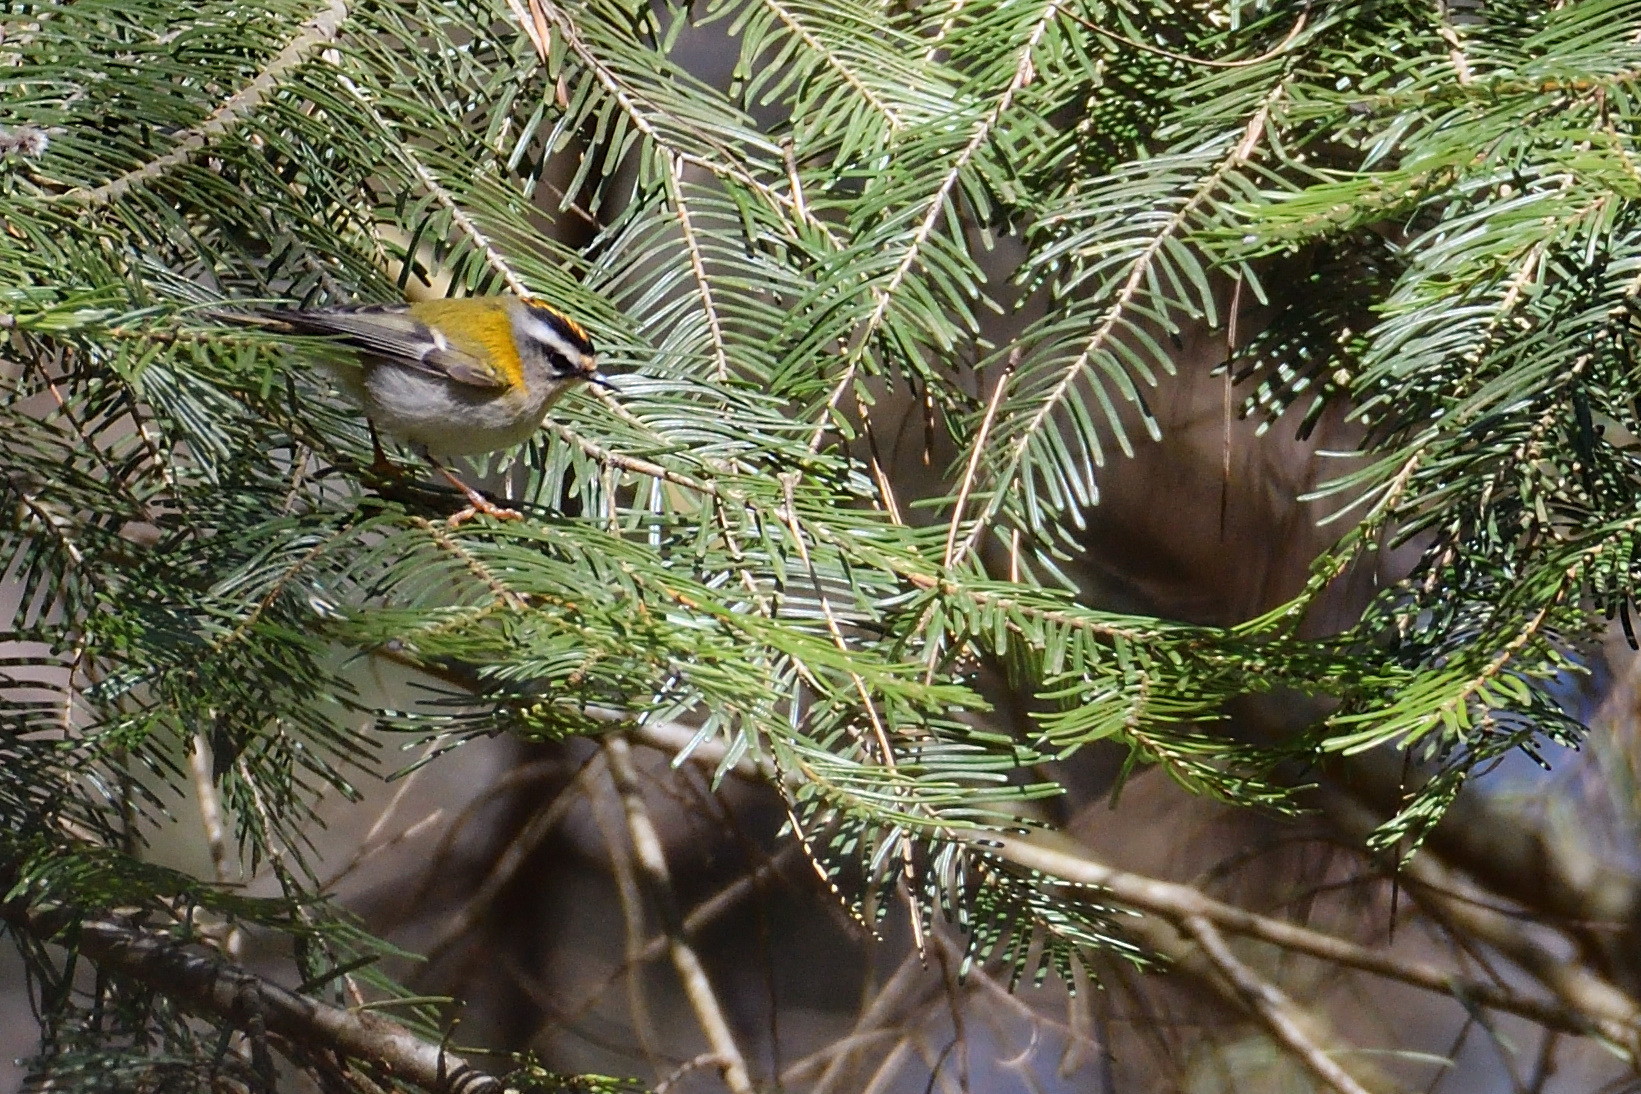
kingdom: Animalia
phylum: Chordata
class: Aves
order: Passeriformes
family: Regulidae
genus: Regulus
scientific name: Regulus ignicapilla
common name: Firecrest
